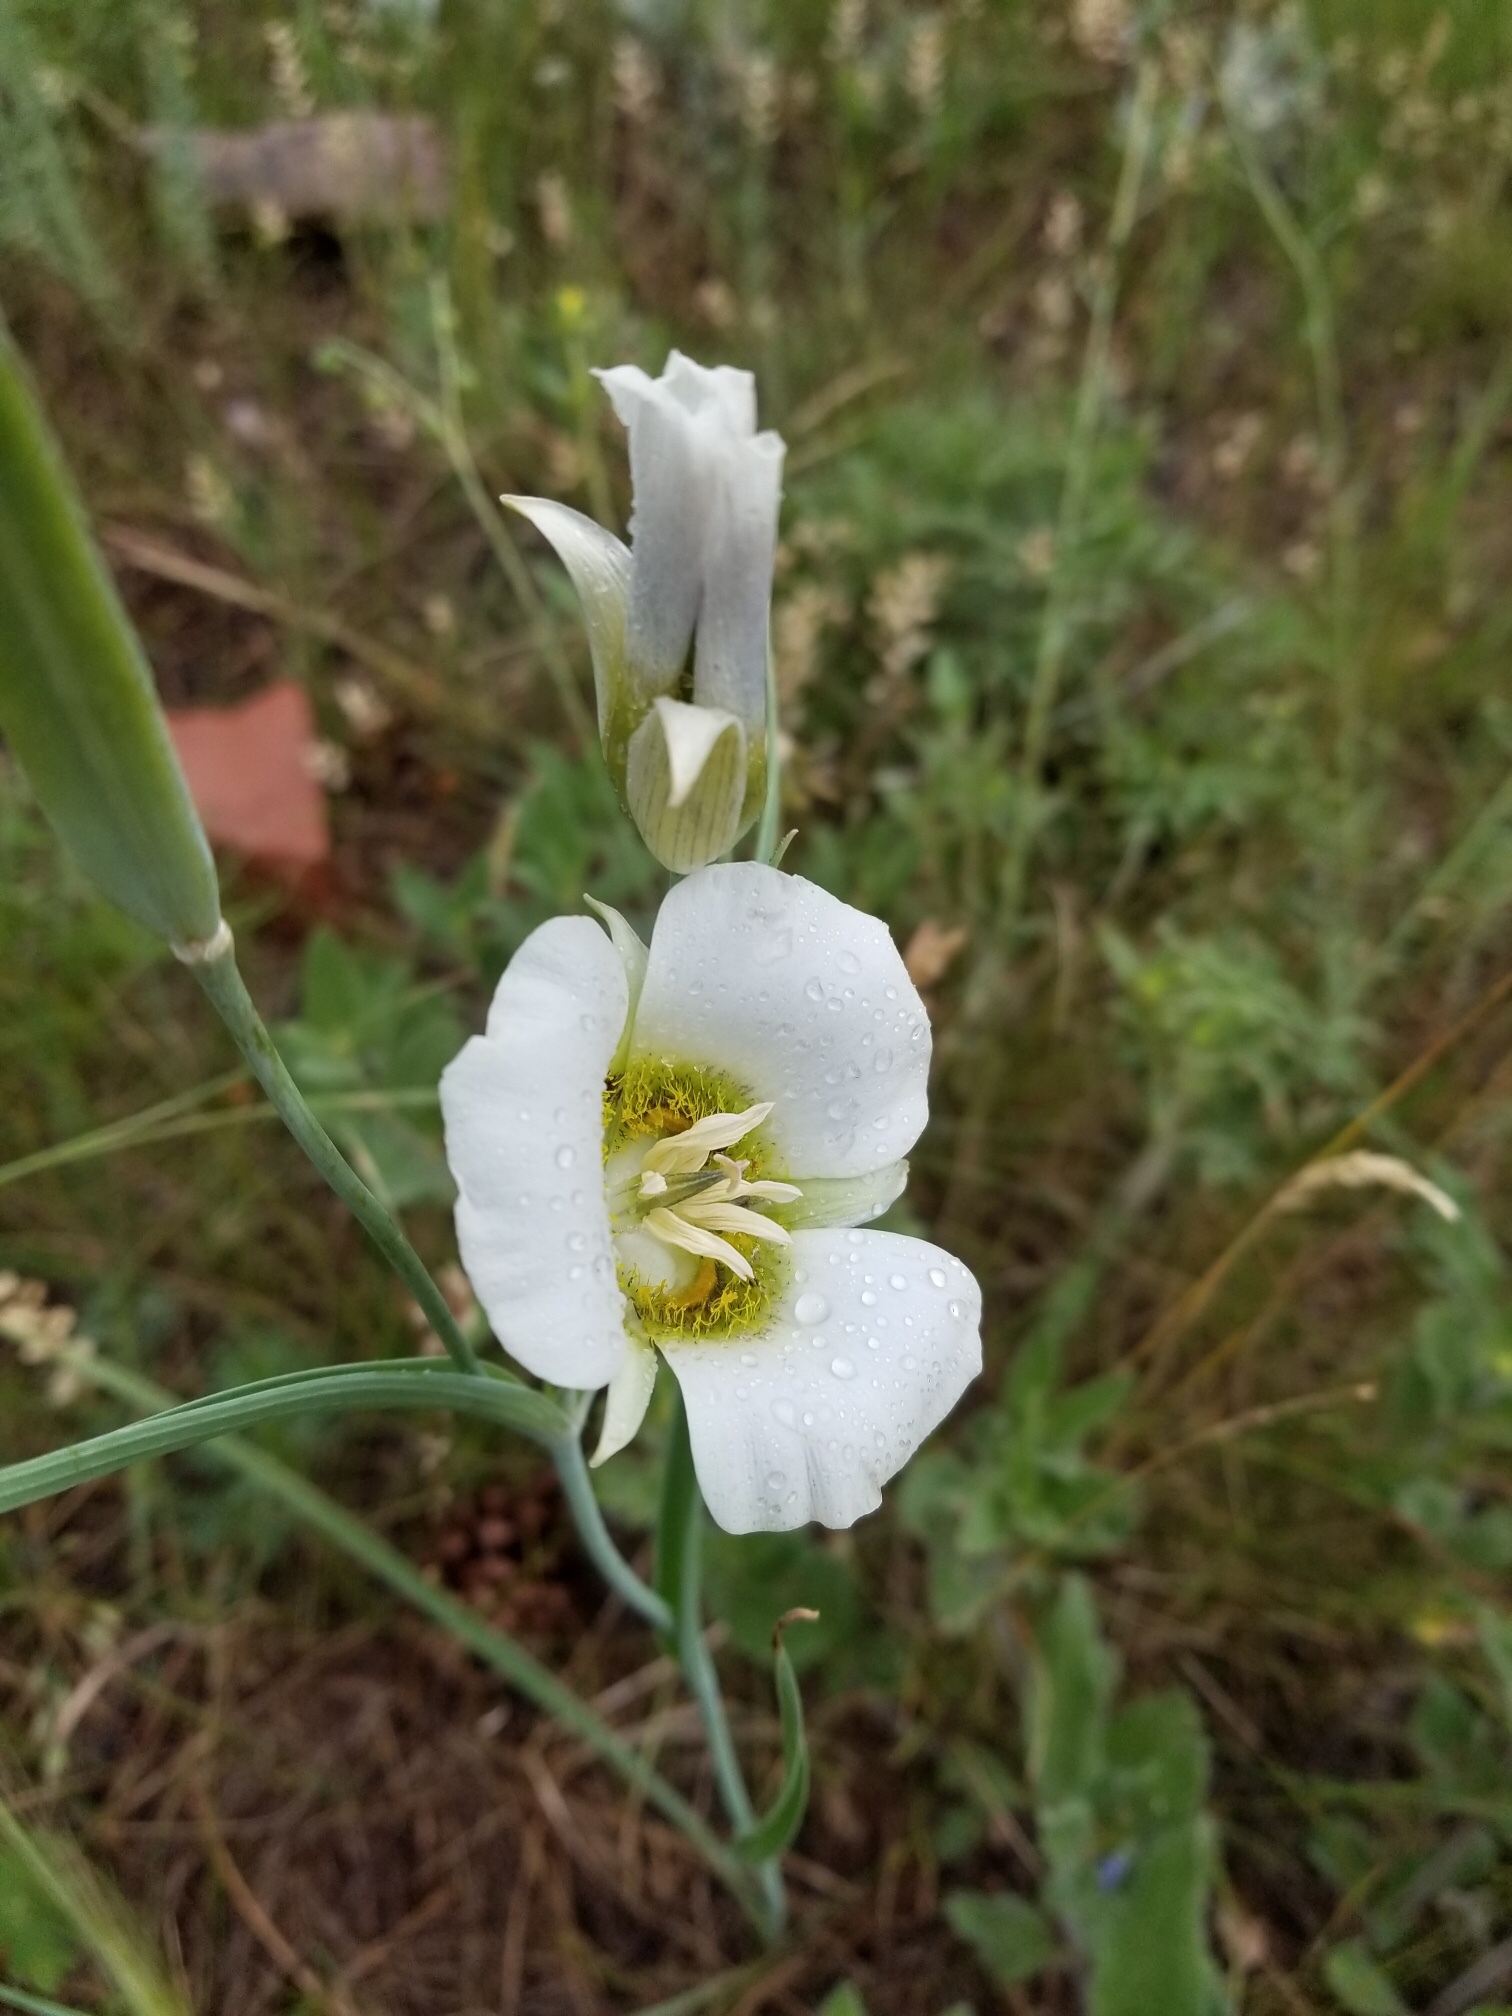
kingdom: Plantae
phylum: Tracheophyta
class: Liliopsida
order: Liliales
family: Liliaceae
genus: Calochortus
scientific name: Calochortus gunnisonii
